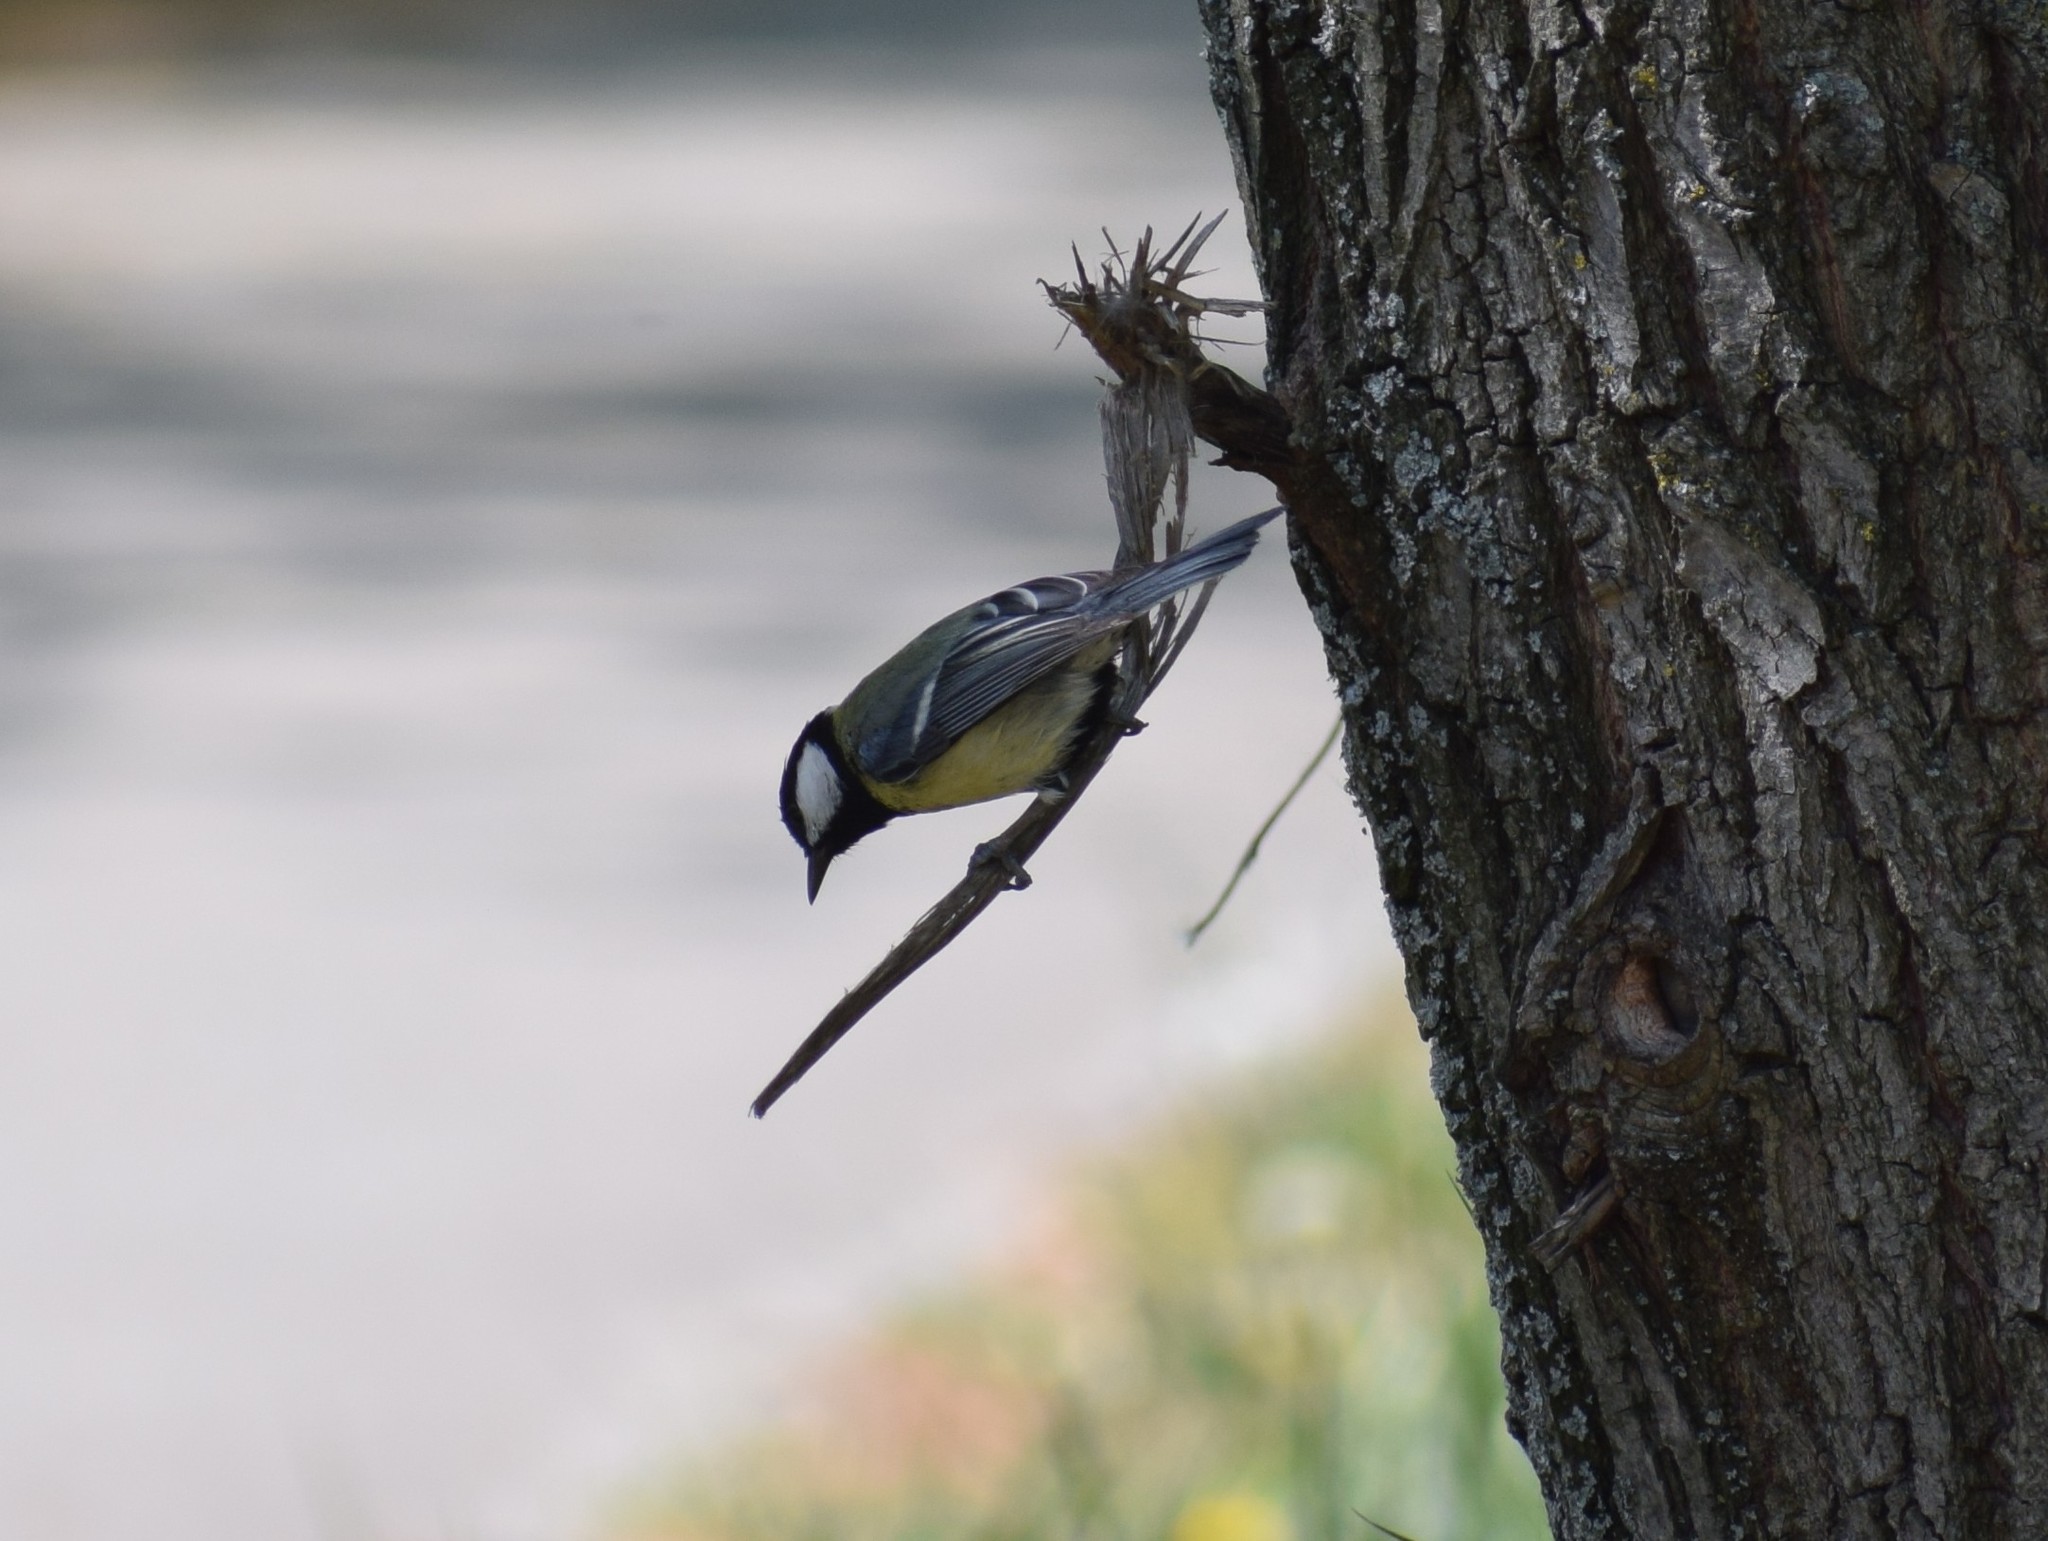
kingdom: Animalia
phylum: Chordata
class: Aves
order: Passeriformes
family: Paridae
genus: Parus
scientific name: Parus major
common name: Great tit
